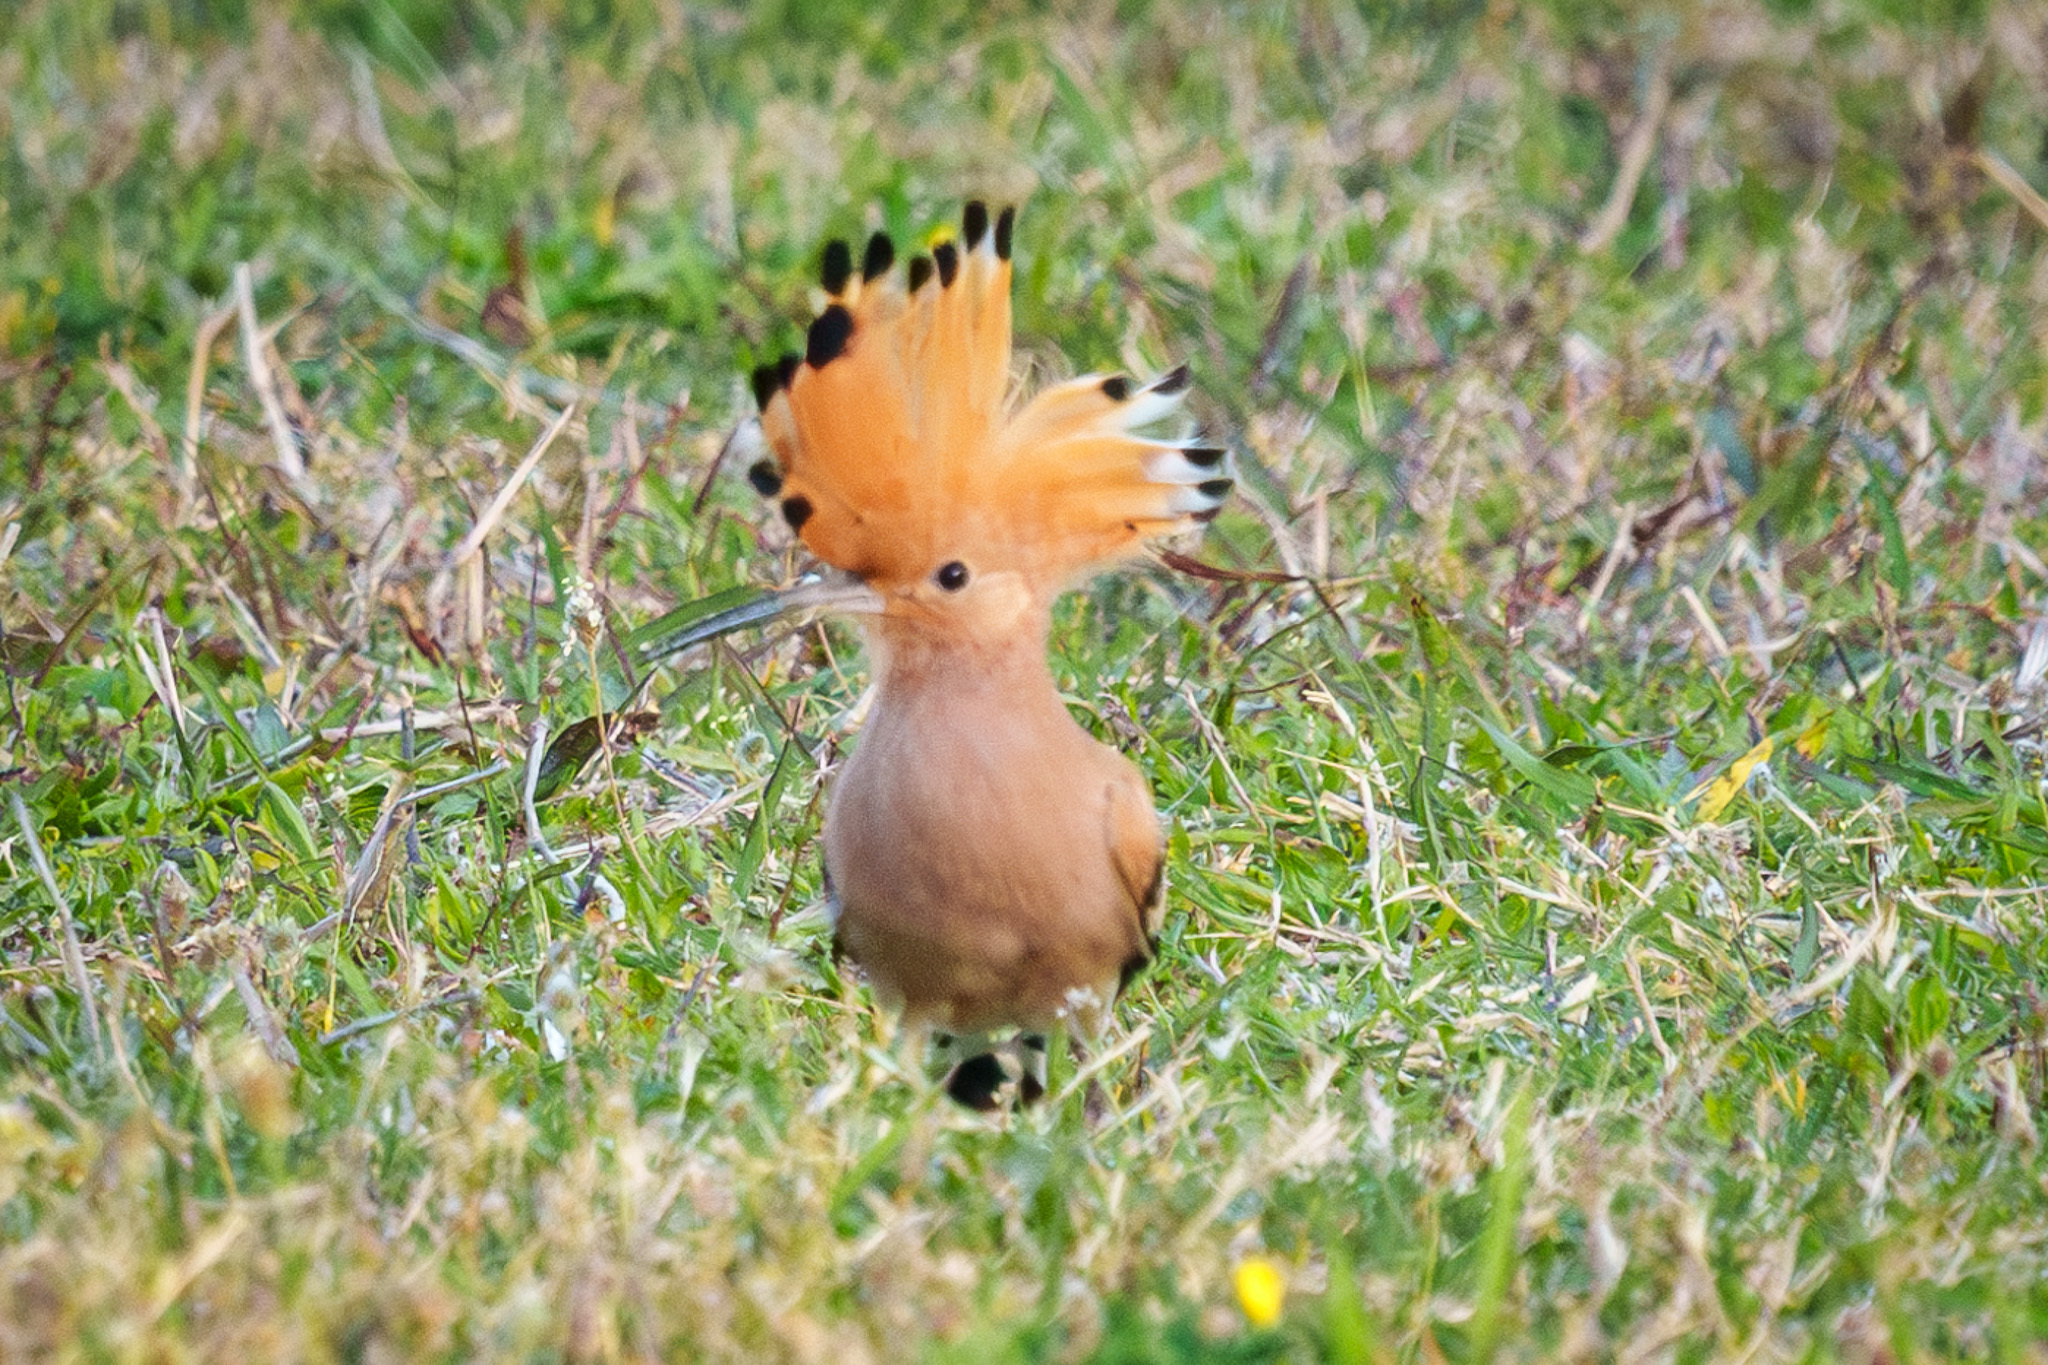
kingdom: Animalia
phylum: Chordata
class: Aves
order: Bucerotiformes
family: Upupidae
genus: Upupa
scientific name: Upupa epops
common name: Eurasian hoopoe
